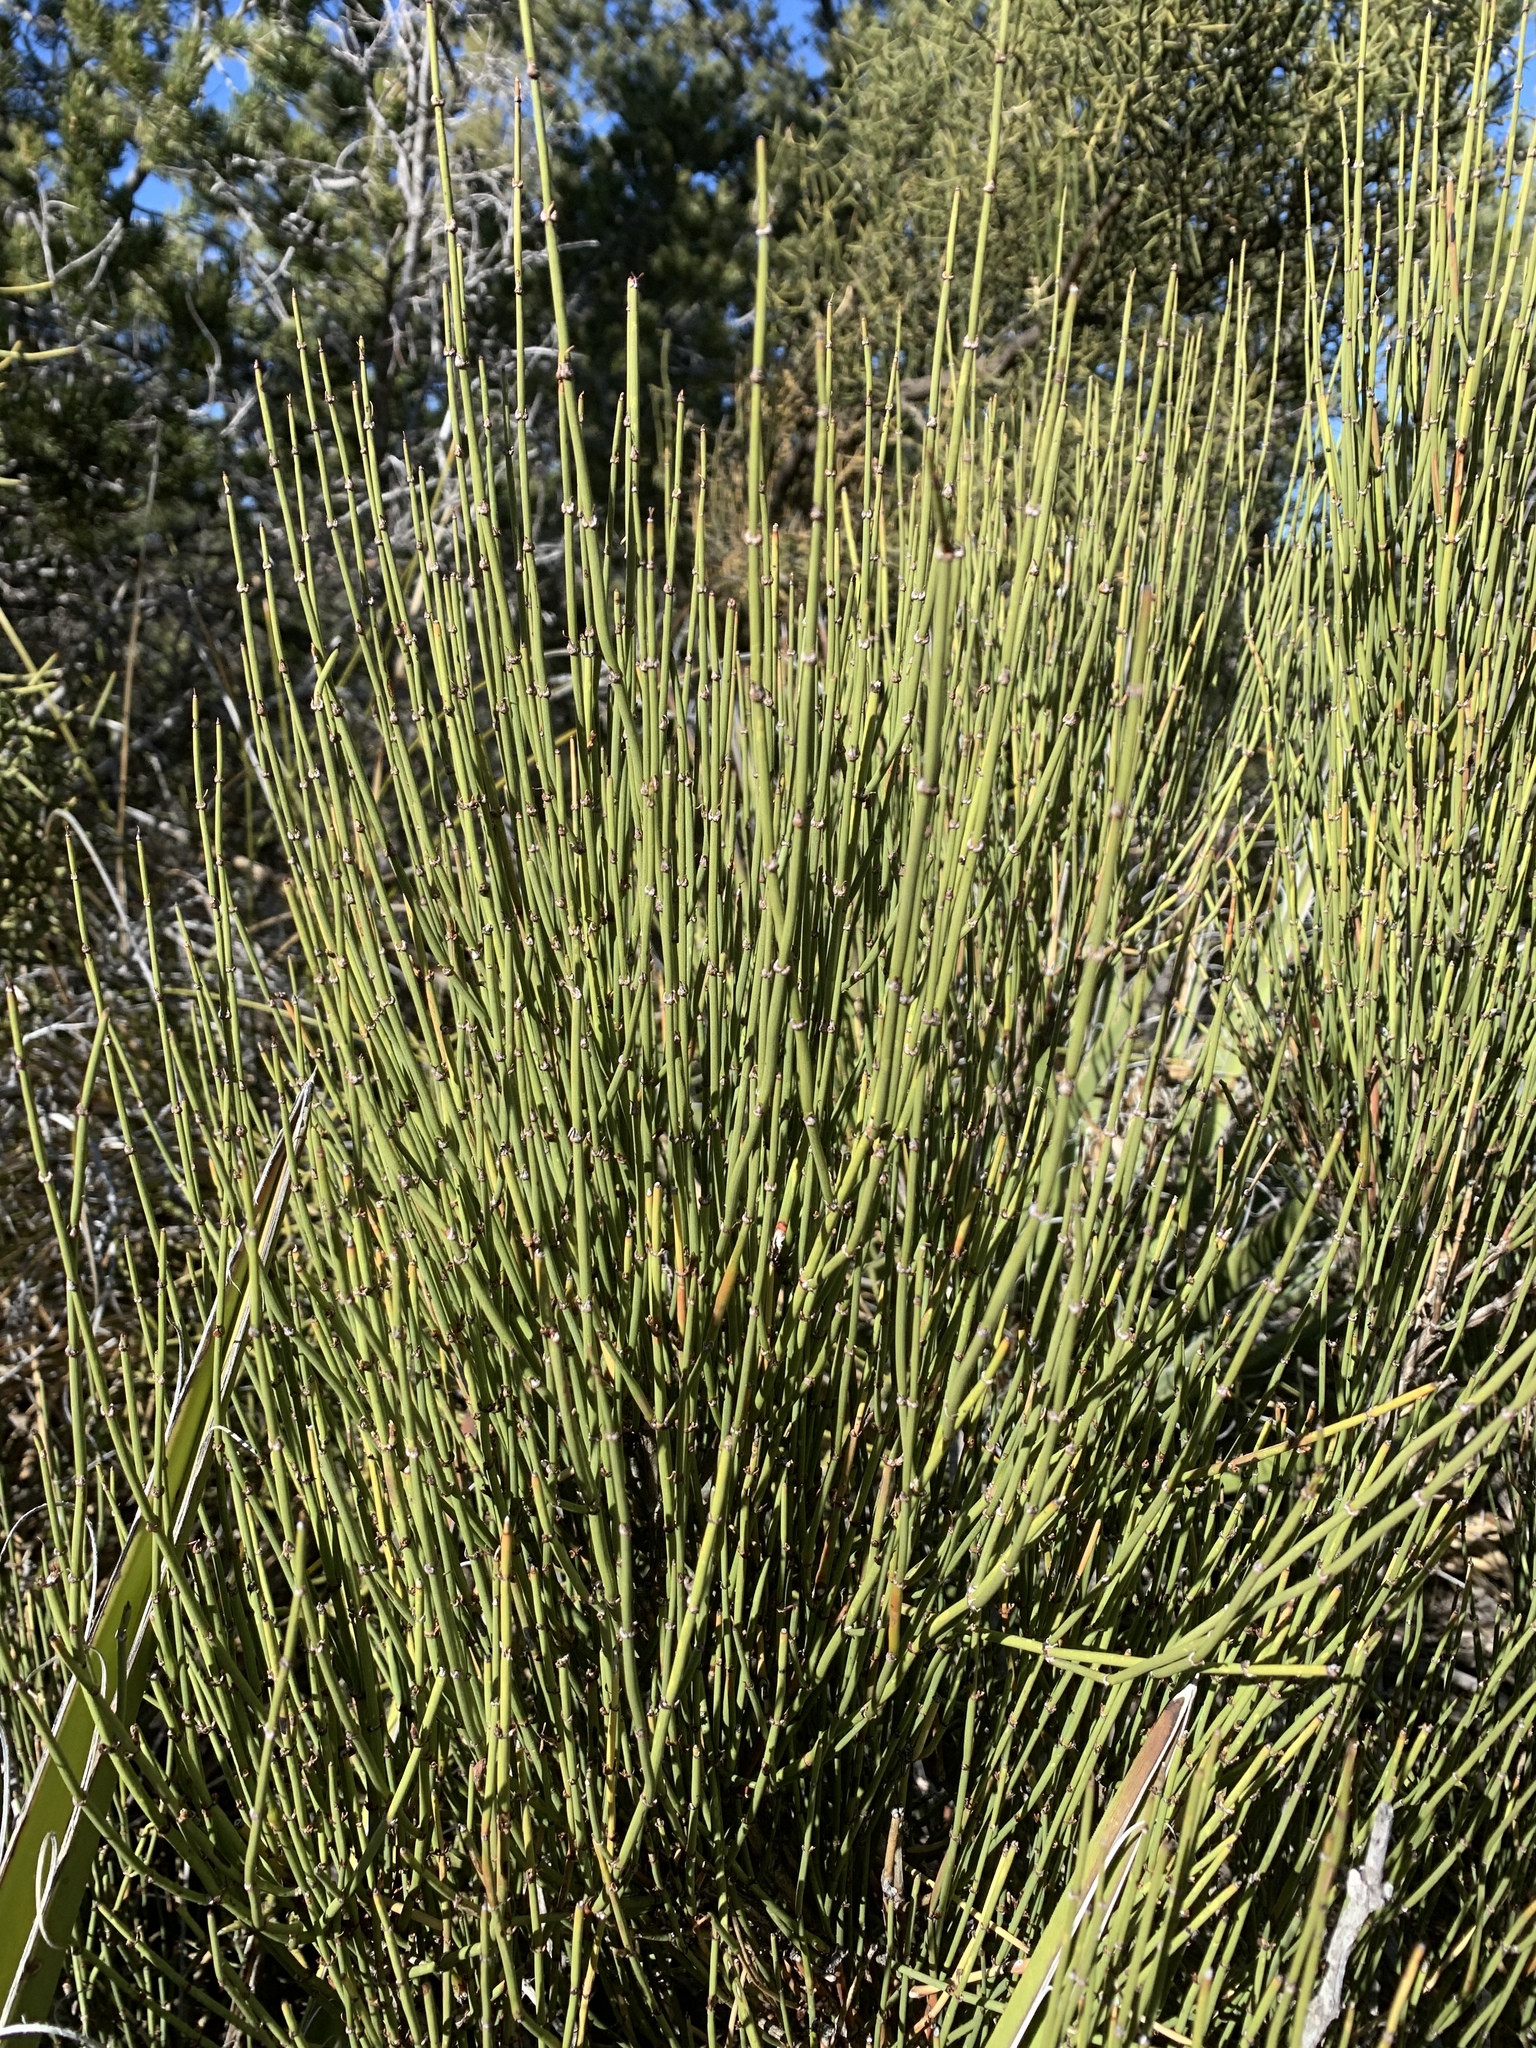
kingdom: Plantae
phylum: Tracheophyta
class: Gnetopsida
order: Ephedrales
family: Ephedraceae
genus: Ephedra
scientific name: Ephedra viridis
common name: Green ephedra
